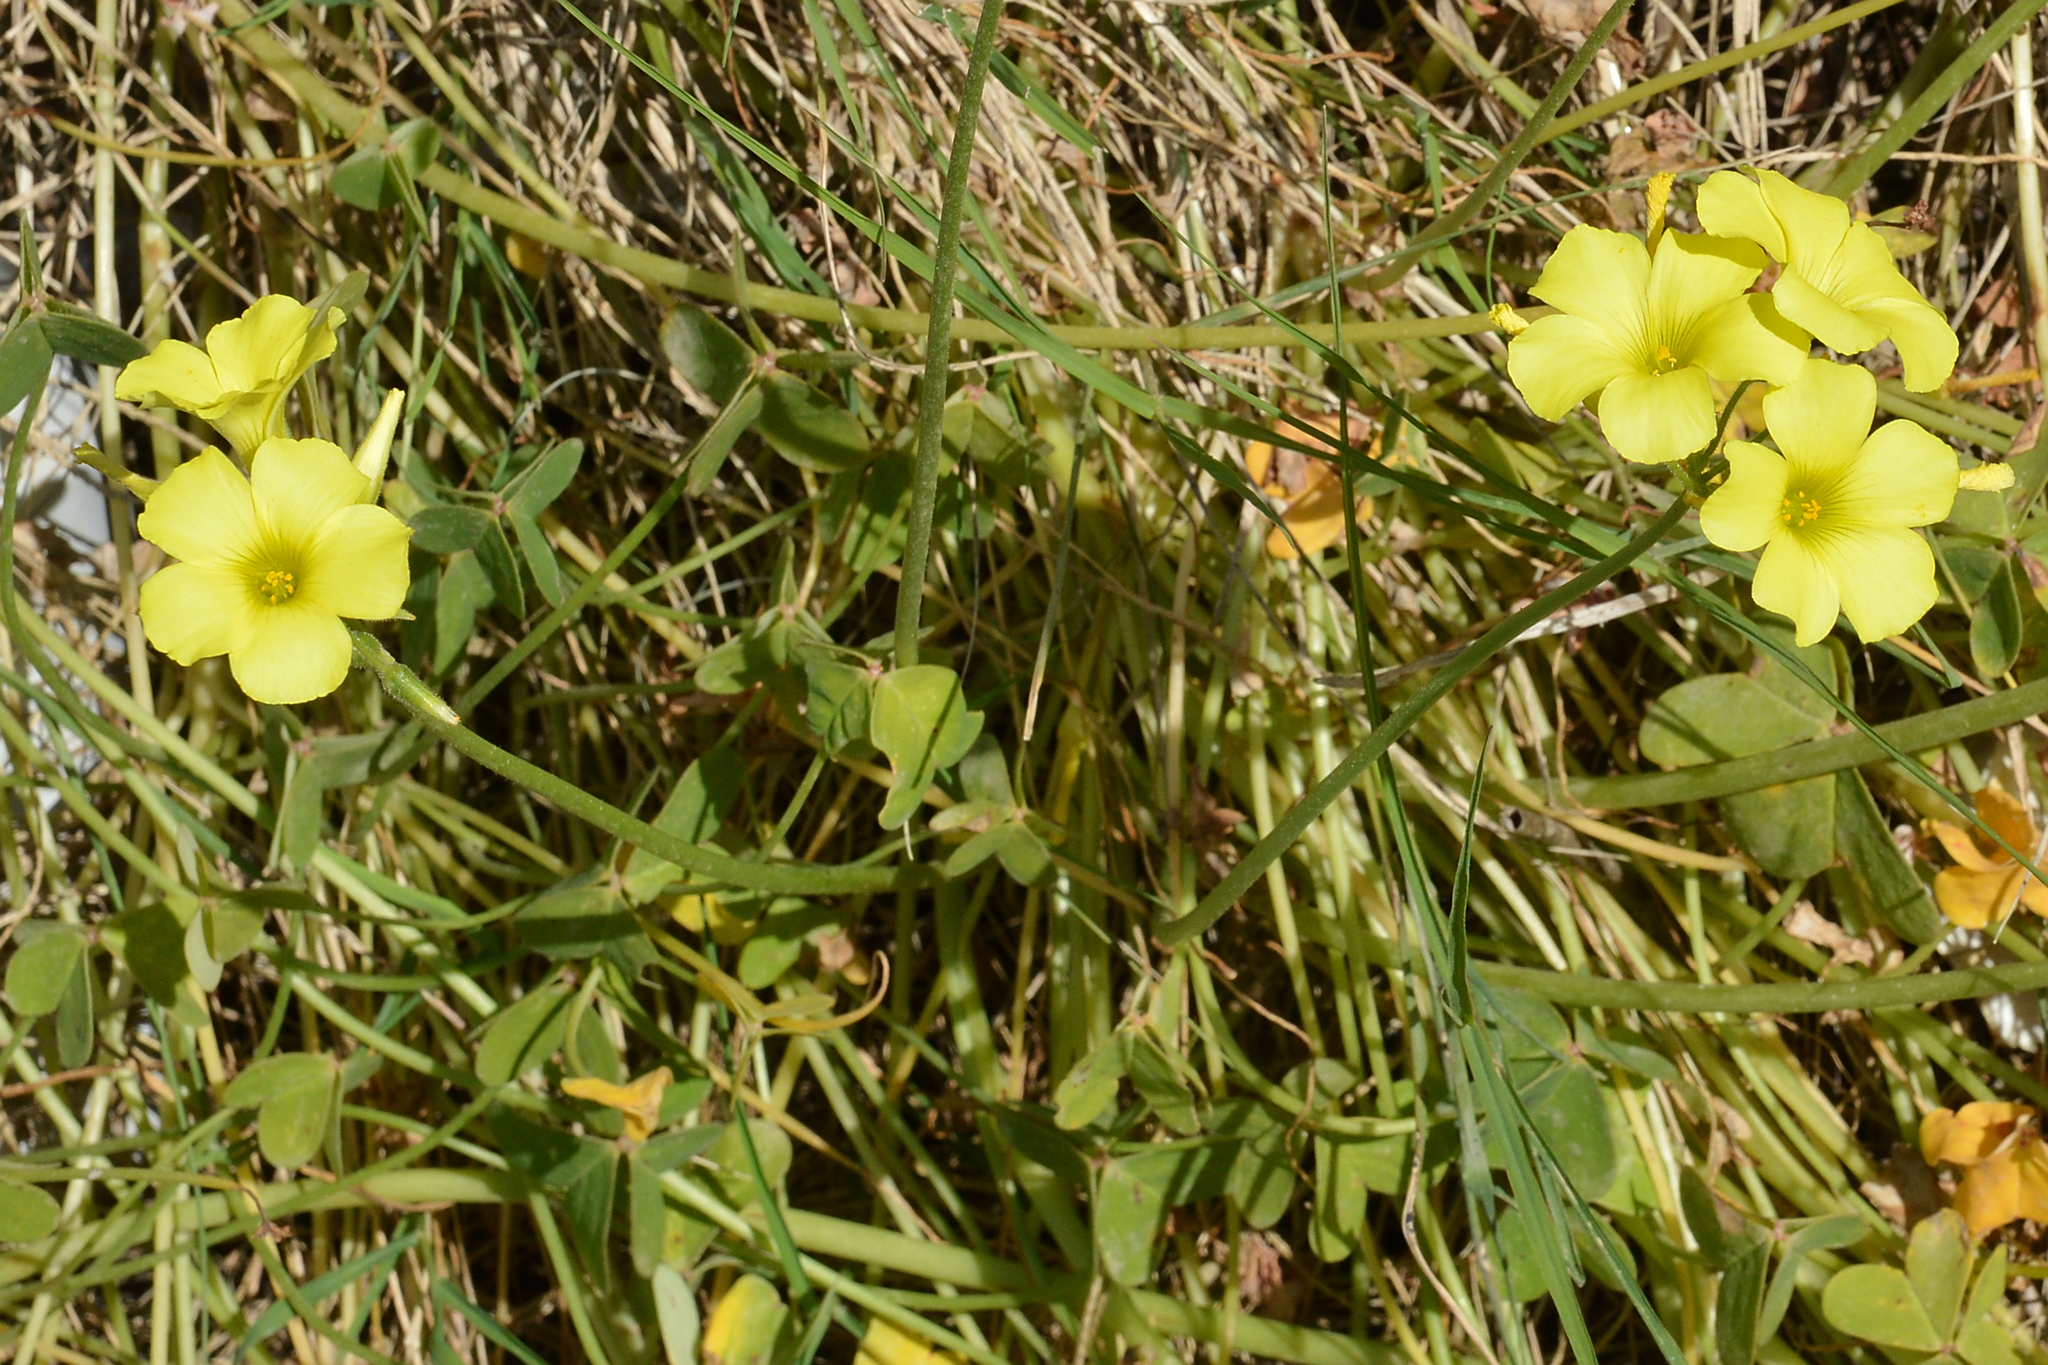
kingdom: Plantae
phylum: Tracheophyta
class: Magnoliopsida
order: Oxalidales
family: Oxalidaceae
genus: Oxalis
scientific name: Oxalis pes-caprae
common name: Bermuda-buttercup
